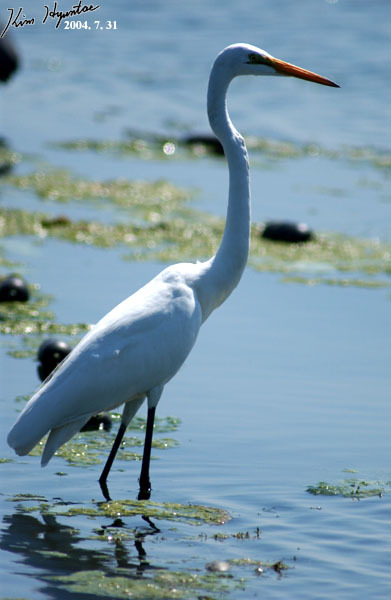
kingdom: Animalia
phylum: Chordata
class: Aves
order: Pelecaniformes
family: Ardeidae
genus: Ardea
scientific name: Ardea alba
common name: Great egret
